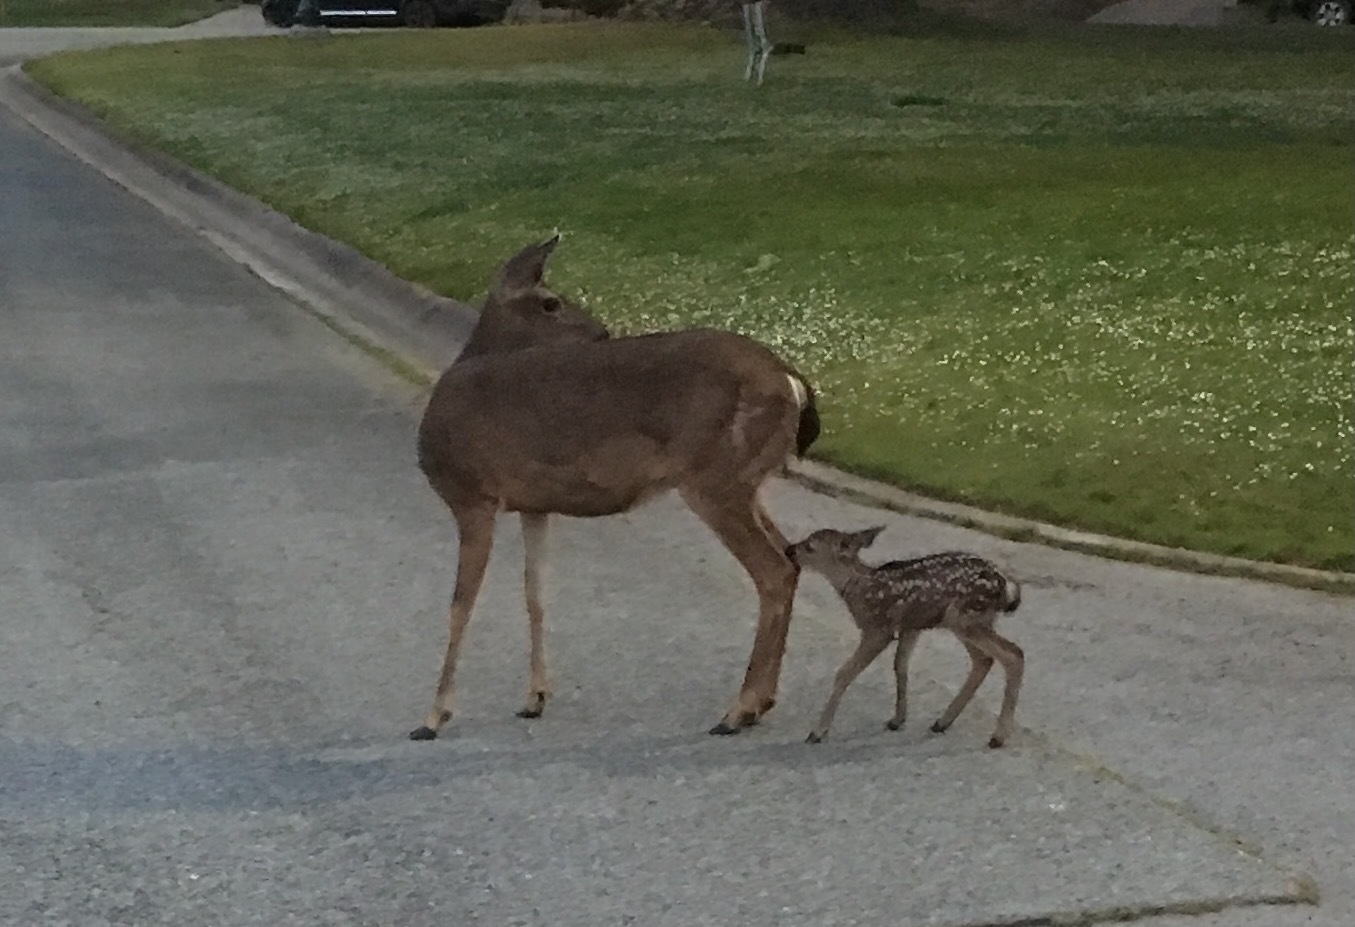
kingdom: Animalia
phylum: Chordata
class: Mammalia
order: Artiodactyla
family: Cervidae
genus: Odocoileus
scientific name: Odocoileus hemionus
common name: Mule deer
